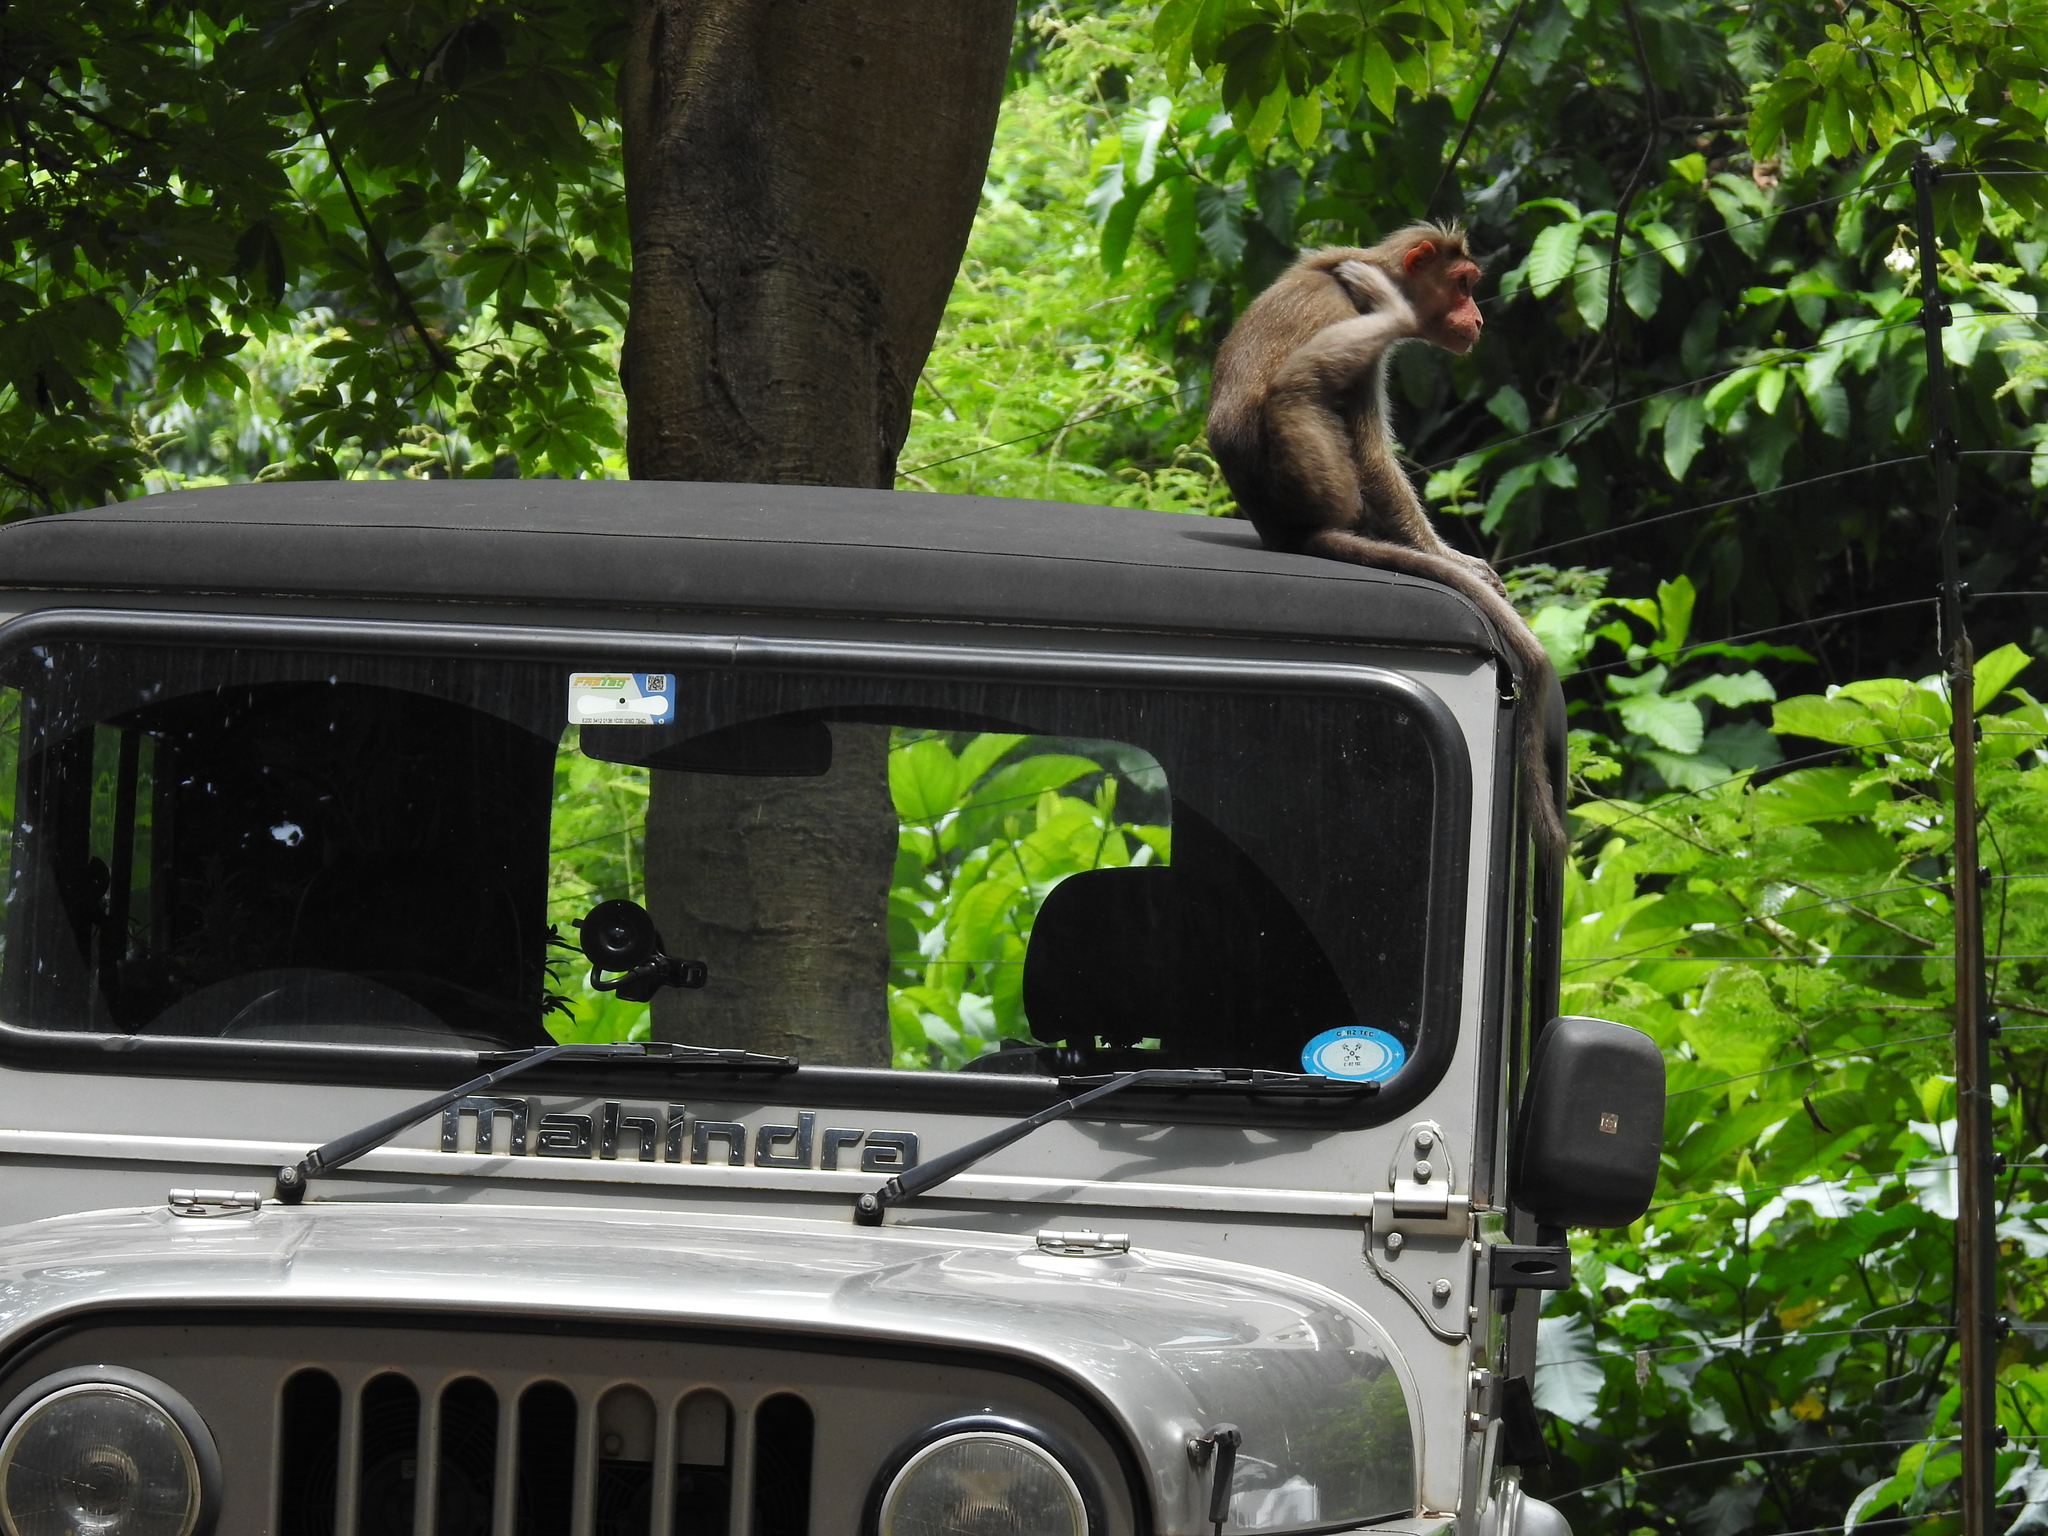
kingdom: Animalia
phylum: Chordata
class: Mammalia
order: Primates
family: Cercopithecidae
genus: Macaca
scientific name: Macaca radiata
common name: Bonnet macaque
